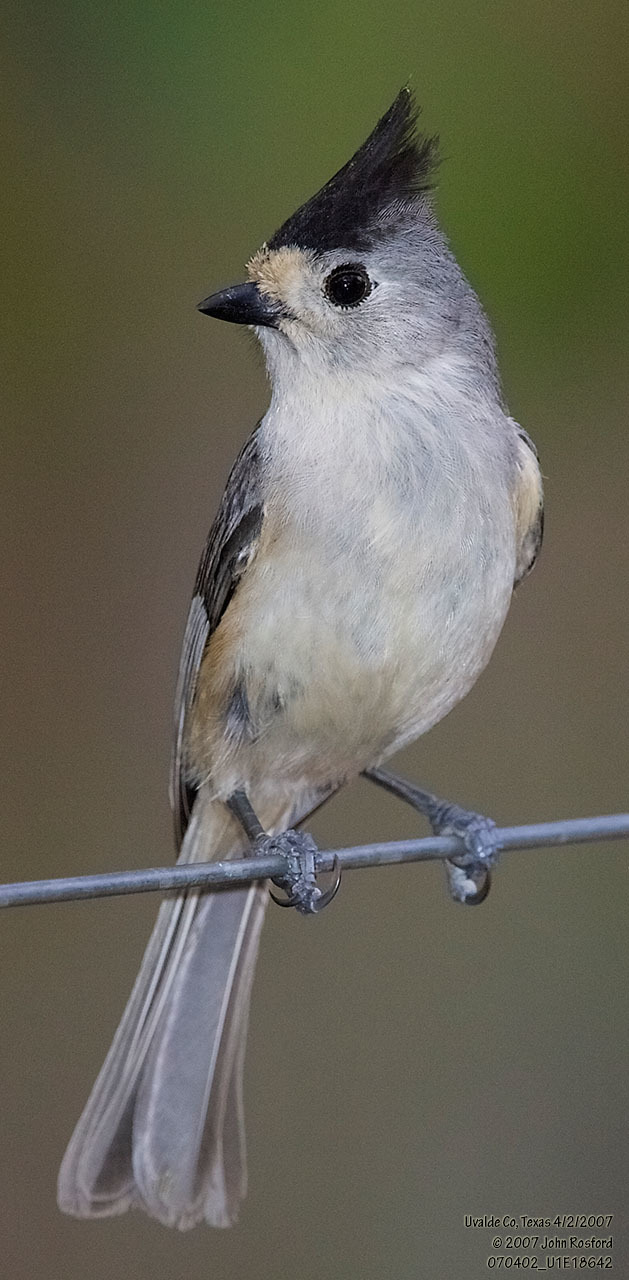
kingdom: Animalia
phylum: Chordata
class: Aves
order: Passeriformes
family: Paridae
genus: Baeolophus
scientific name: Baeolophus atricristatus
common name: Black-crested titmouse
